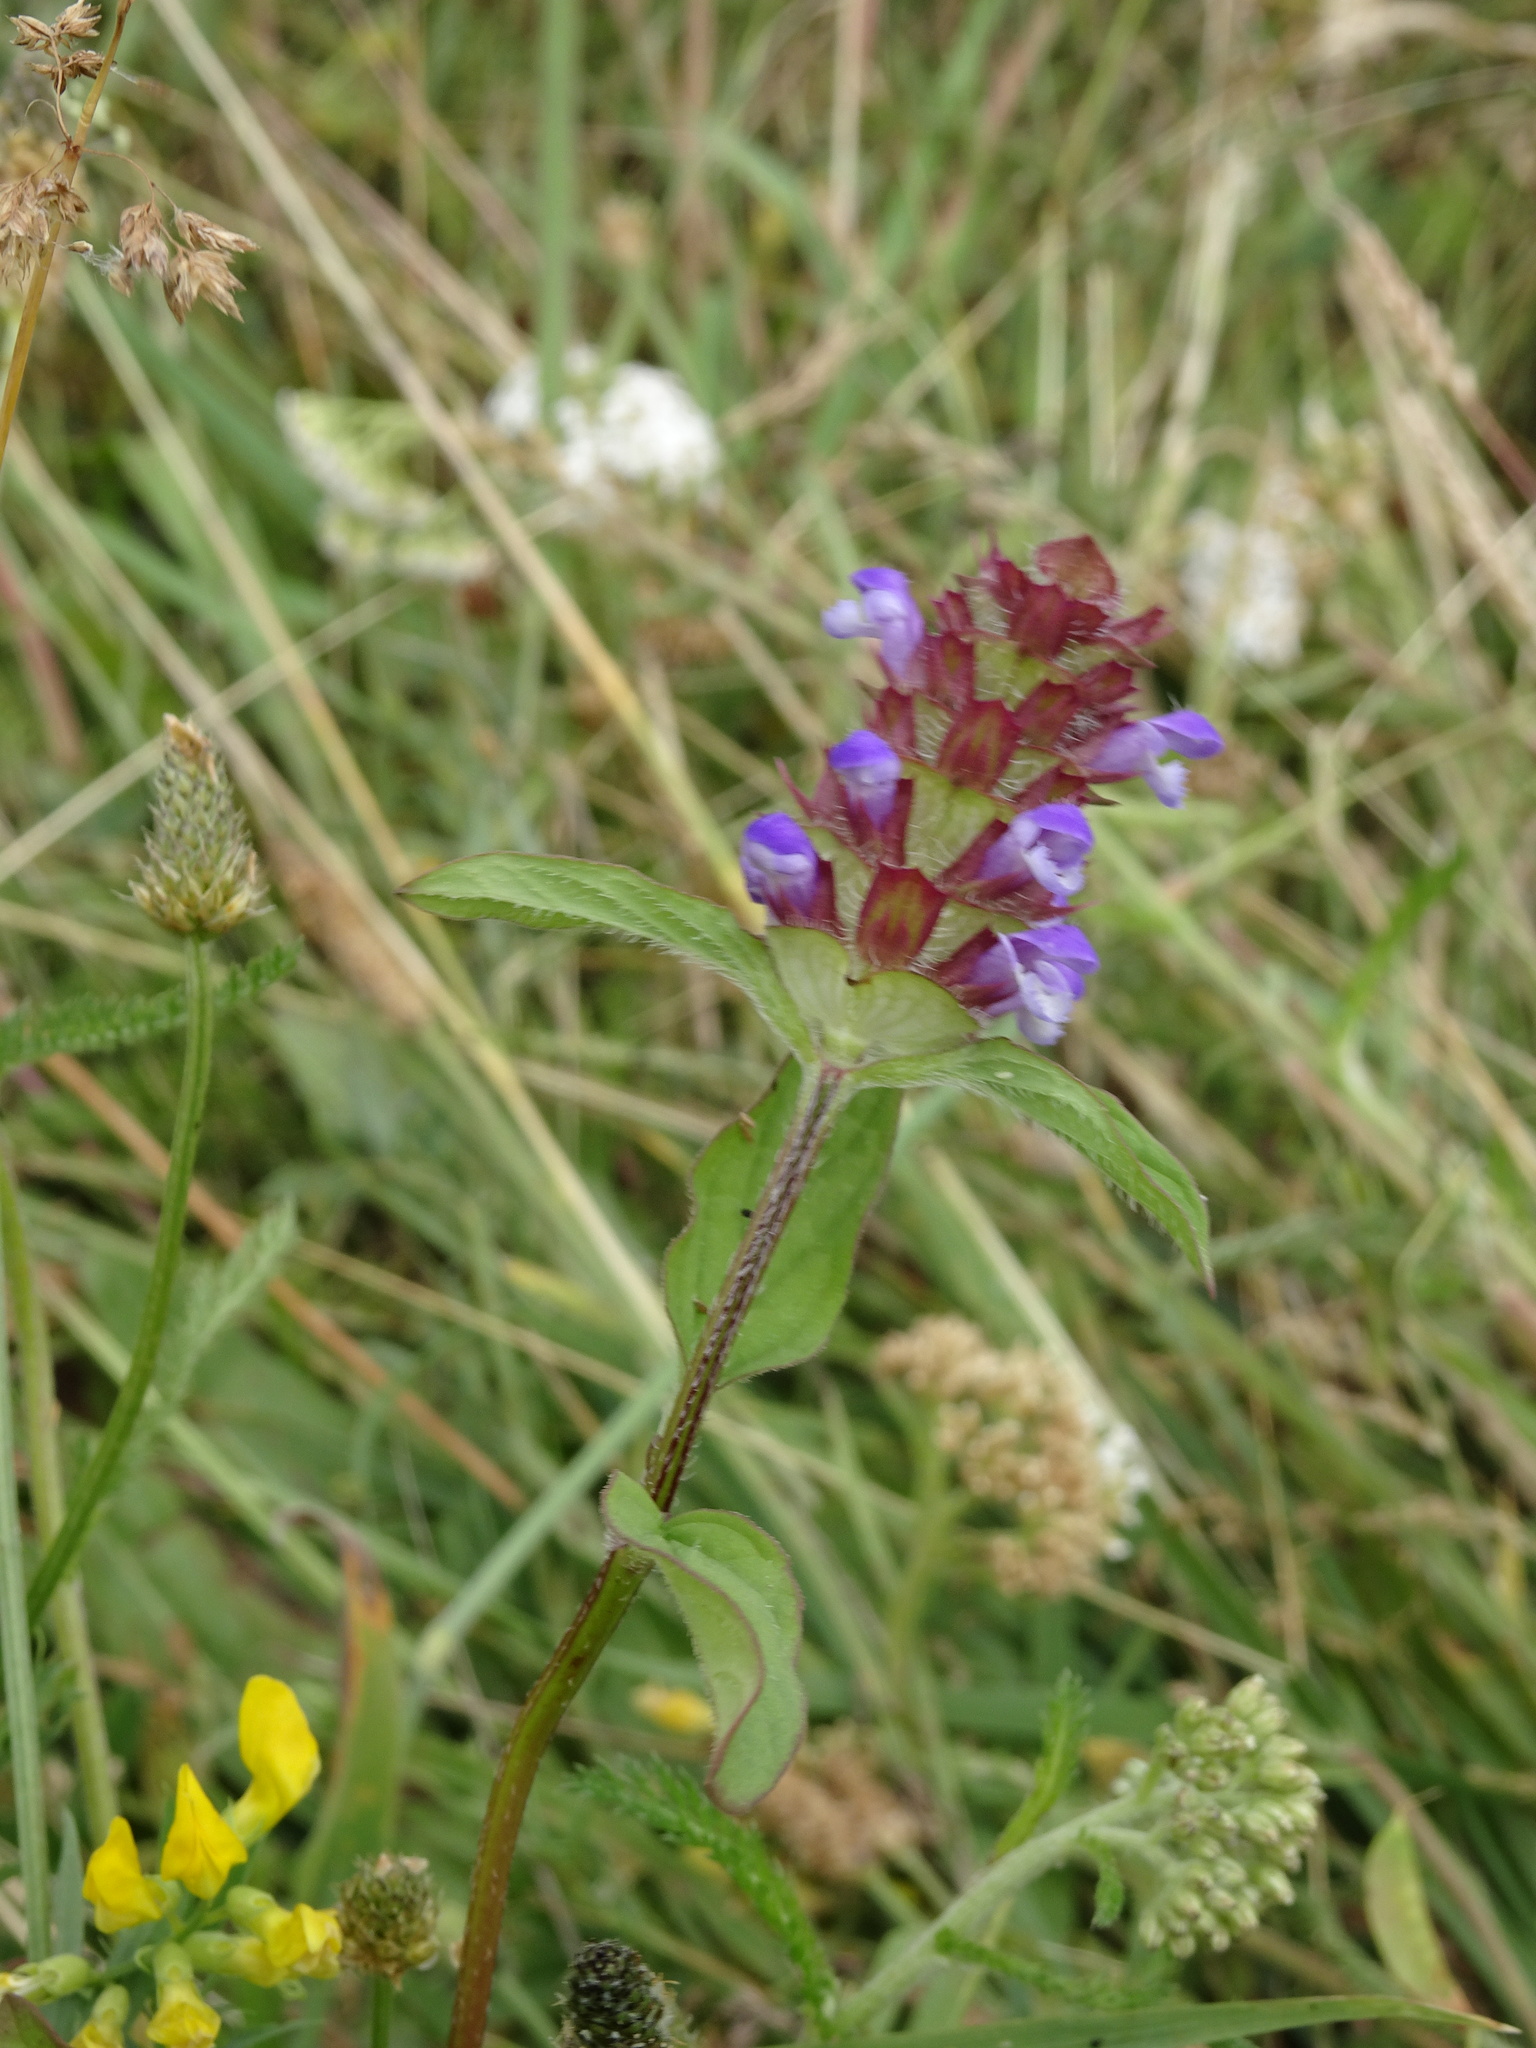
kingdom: Plantae
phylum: Tracheophyta
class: Magnoliopsida
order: Lamiales
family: Lamiaceae
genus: Prunella
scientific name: Prunella vulgaris
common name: Heal-all
